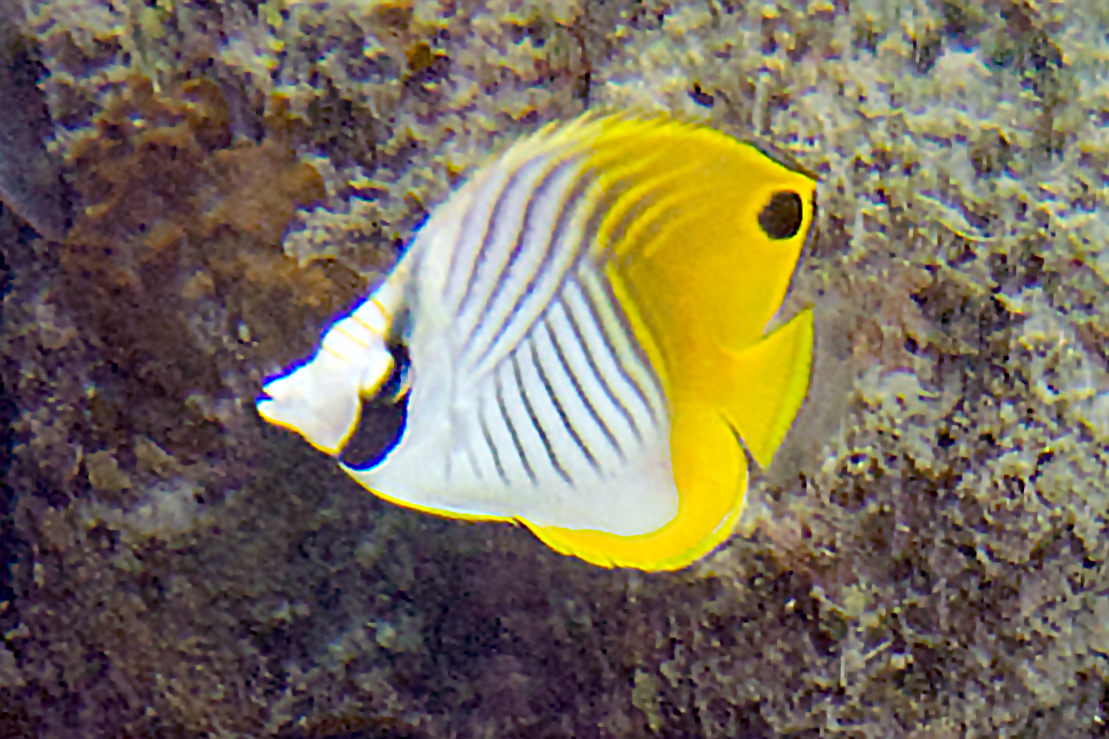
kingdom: Animalia
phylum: Chordata
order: Perciformes
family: Chaetodontidae
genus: Chaetodon
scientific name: Chaetodon auriga
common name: Threadfin butterflyfish
